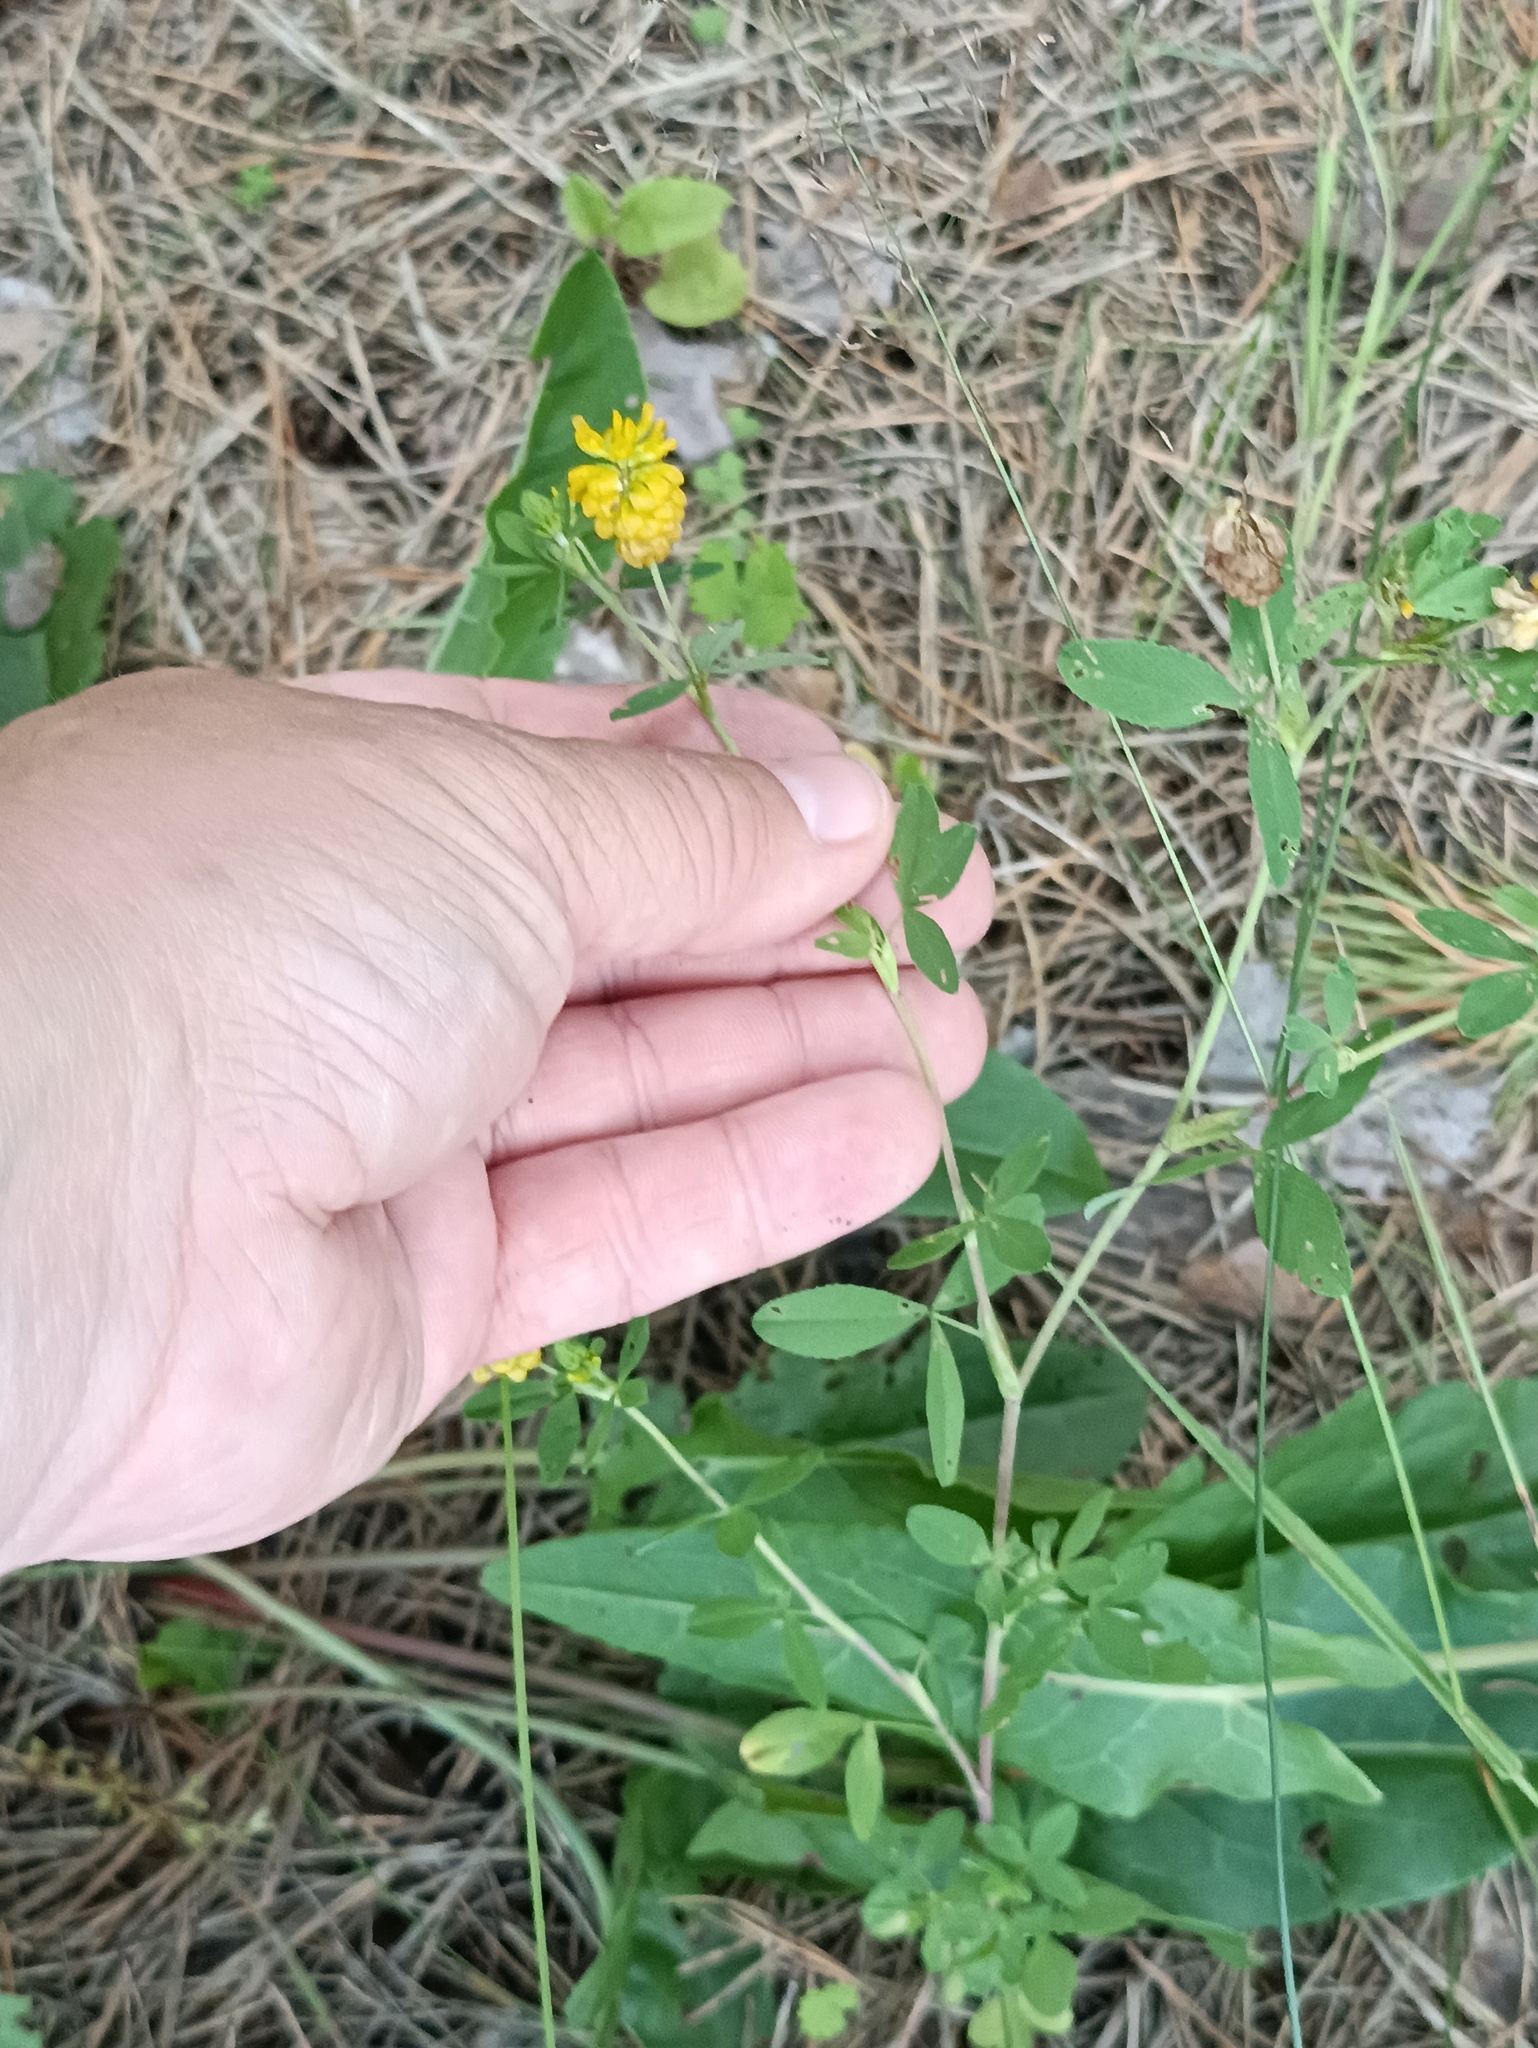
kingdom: Plantae
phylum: Tracheophyta
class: Magnoliopsida
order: Fabales
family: Fabaceae
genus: Trifolium
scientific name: Trifolium aureum
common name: Golden clover
